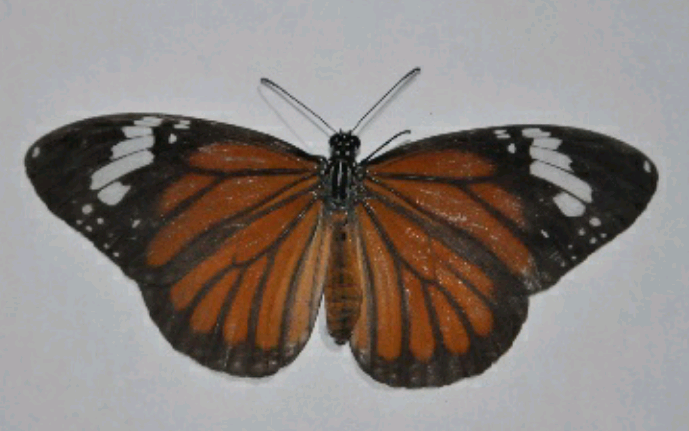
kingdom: Animalia
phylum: Arthropoda
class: Insecta
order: Lepidoptera
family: Nymphalidae
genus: Danaus
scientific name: Danaus genutia
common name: Common tiger butterfly
